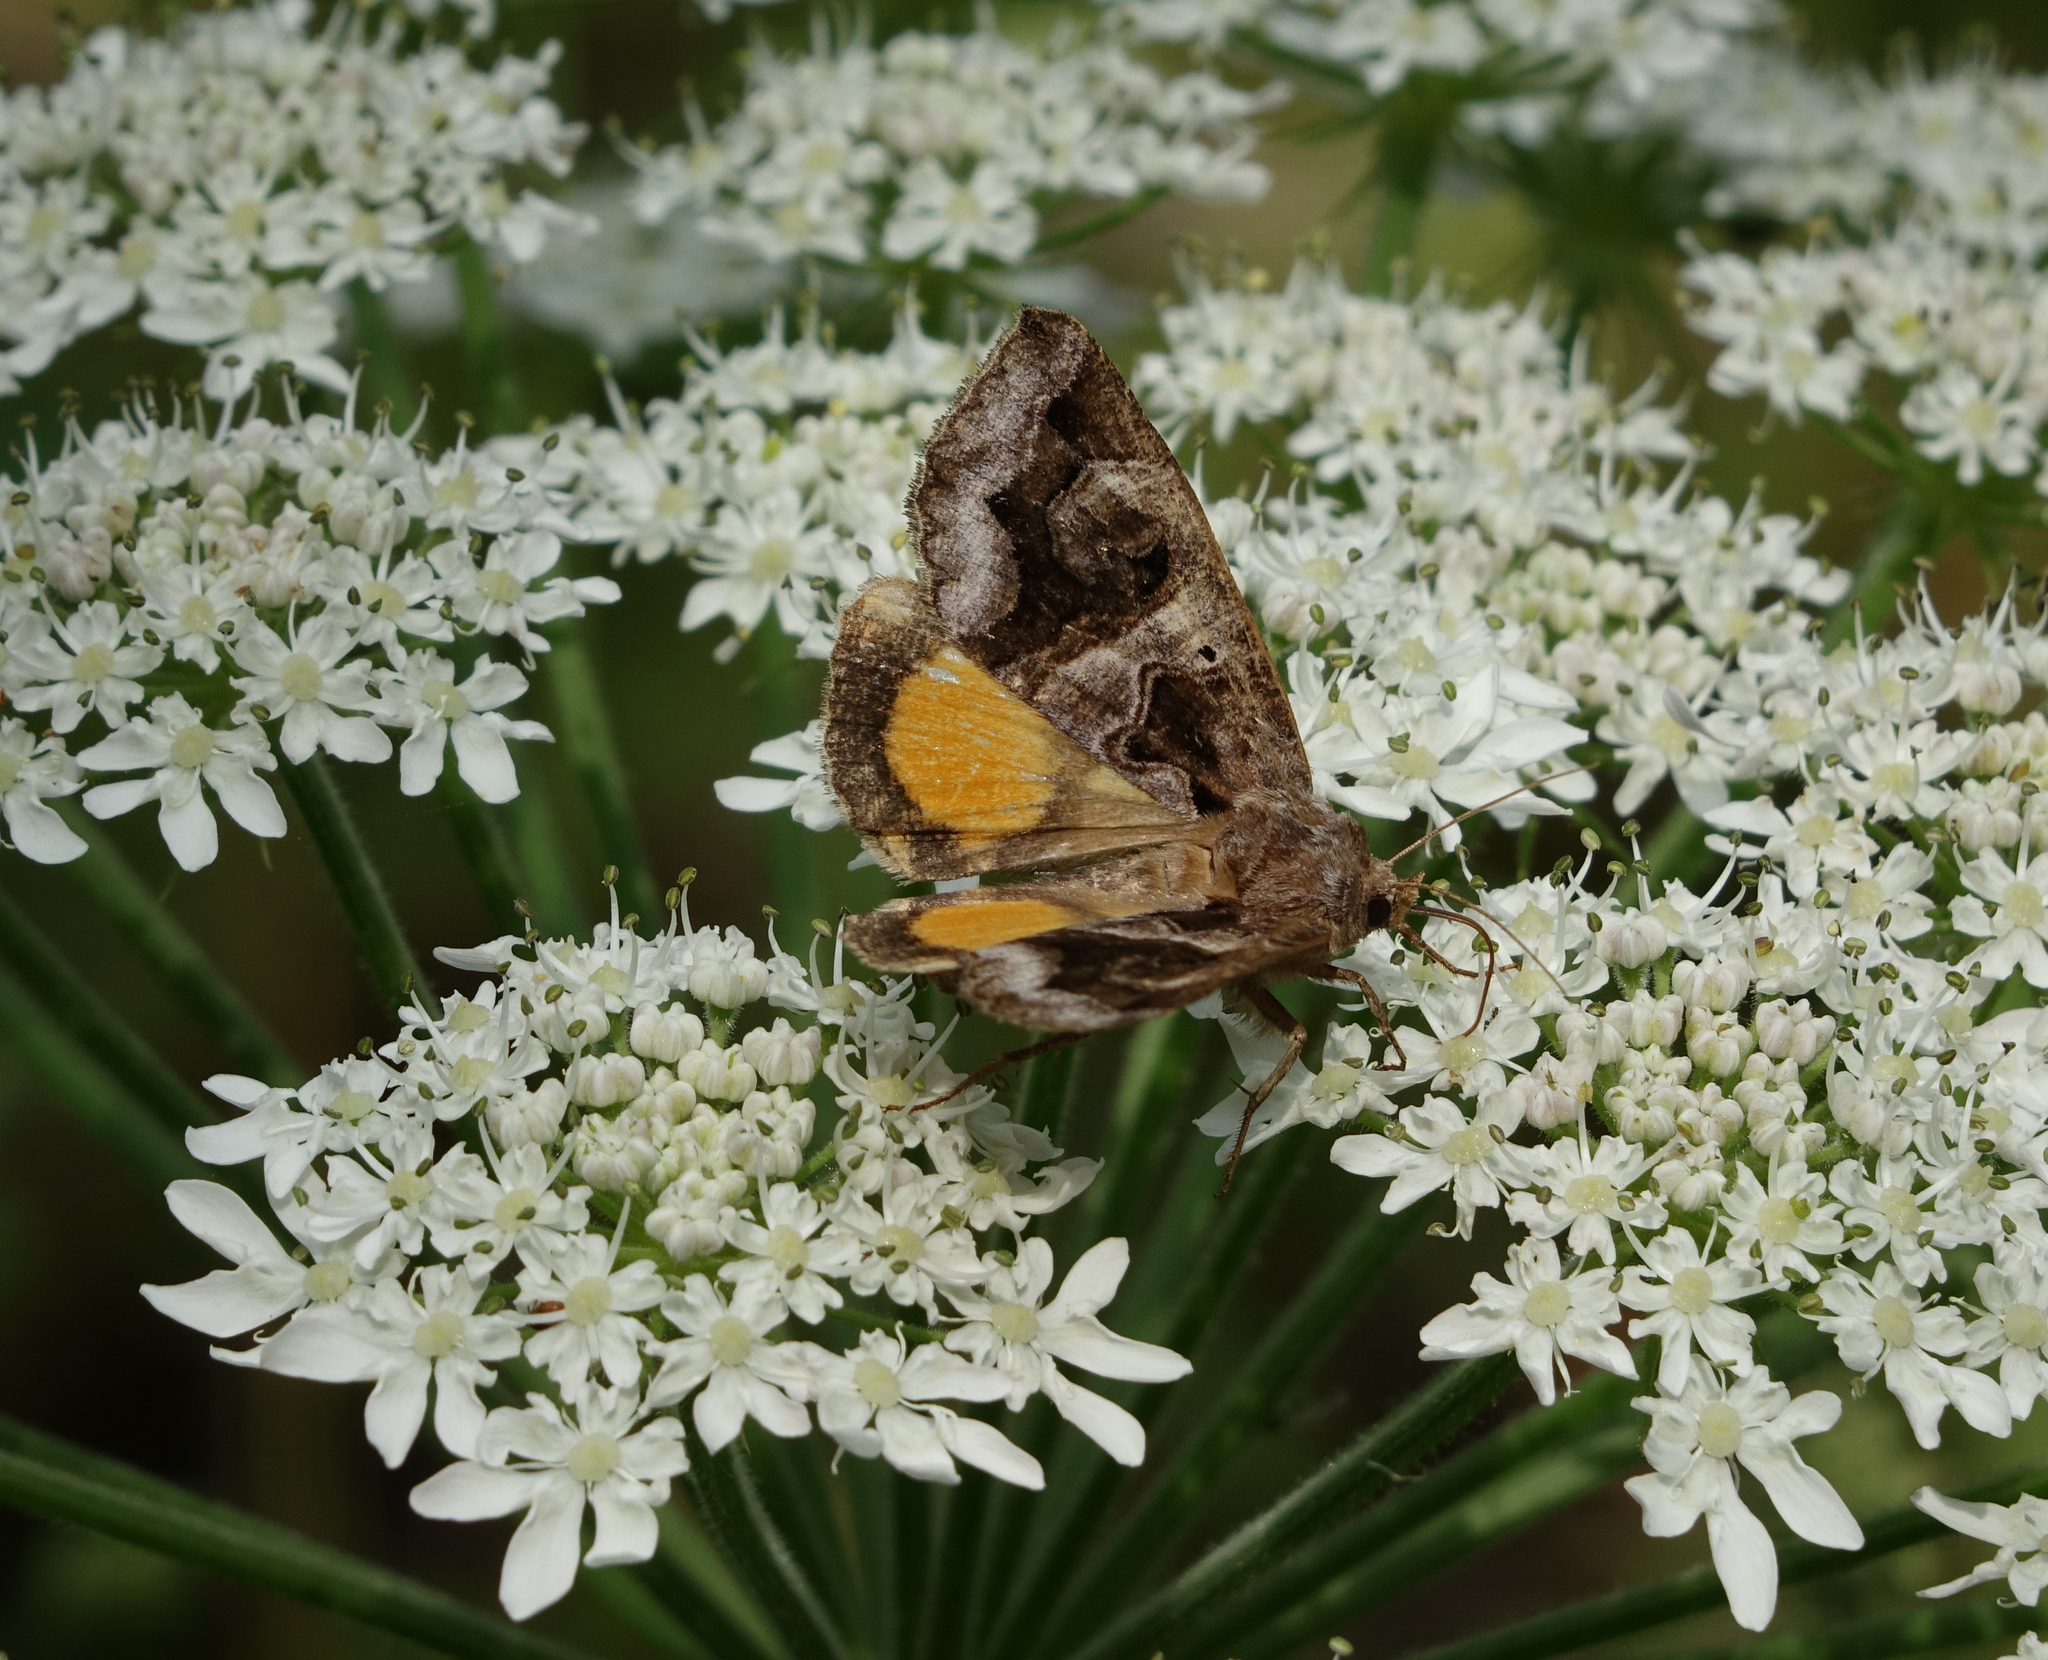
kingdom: Animalia
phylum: Arthropoda
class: Insecta
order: Lepidoptera
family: Erebidae
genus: Chrysorithrum
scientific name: Chrysorithrum flavomaculata
